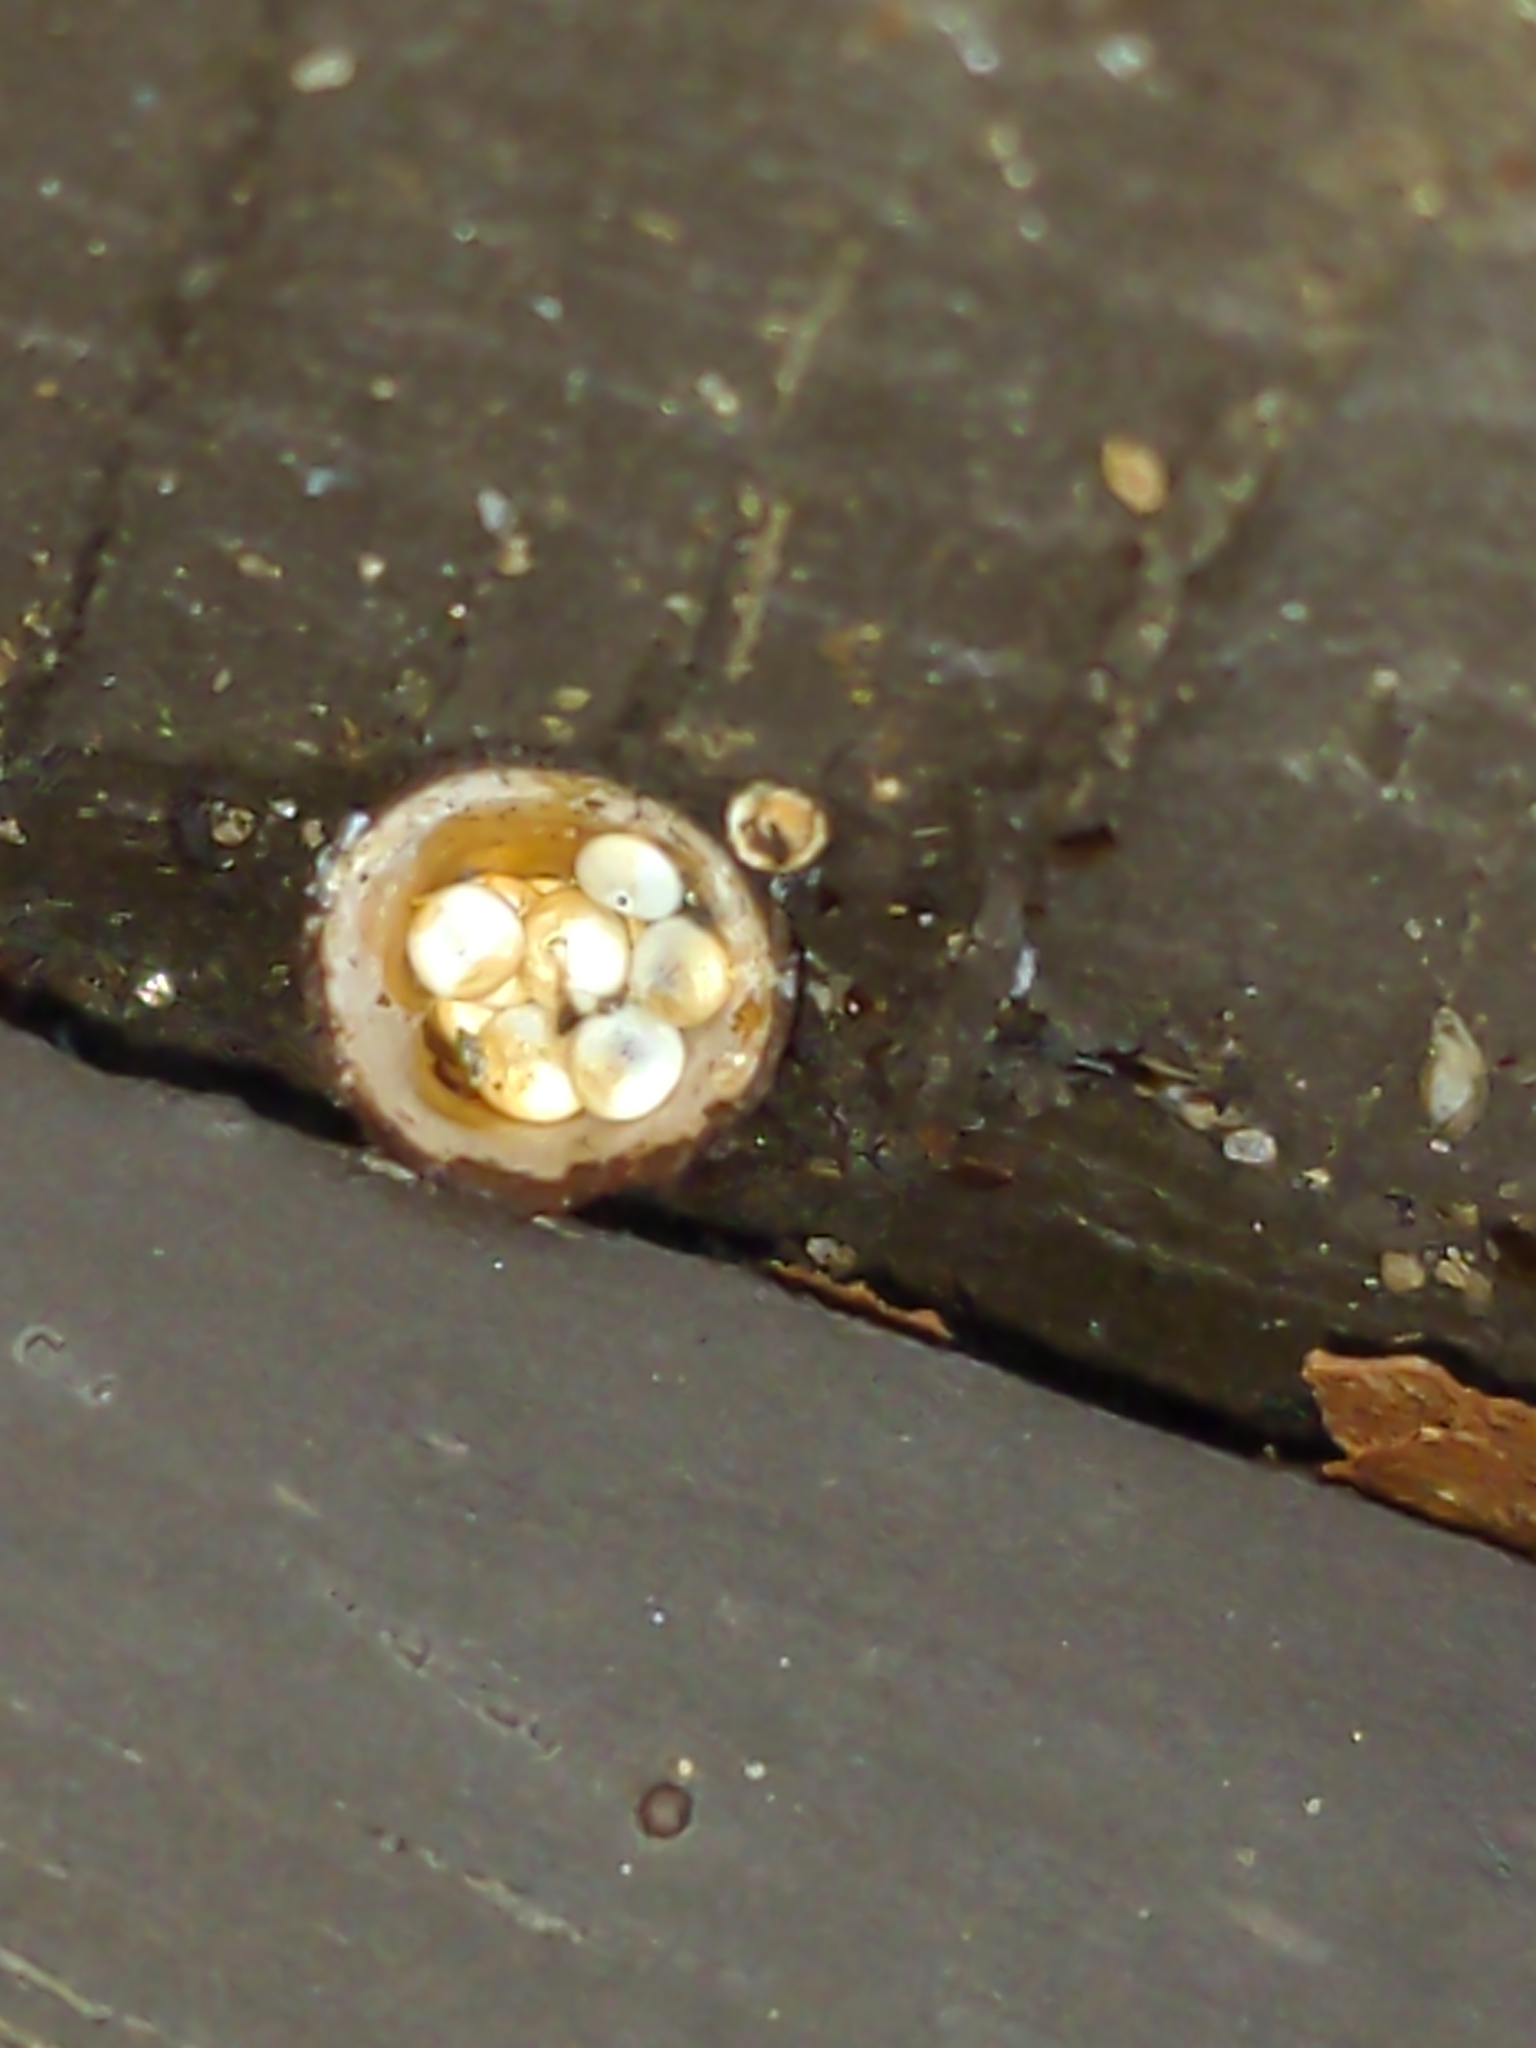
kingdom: Fungi
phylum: Basidiomycota
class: Agaricomycetes
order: Agaricales
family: Nidulariaceae
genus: Crucibulum
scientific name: Crucibulum laeve
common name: Common bird's nest
